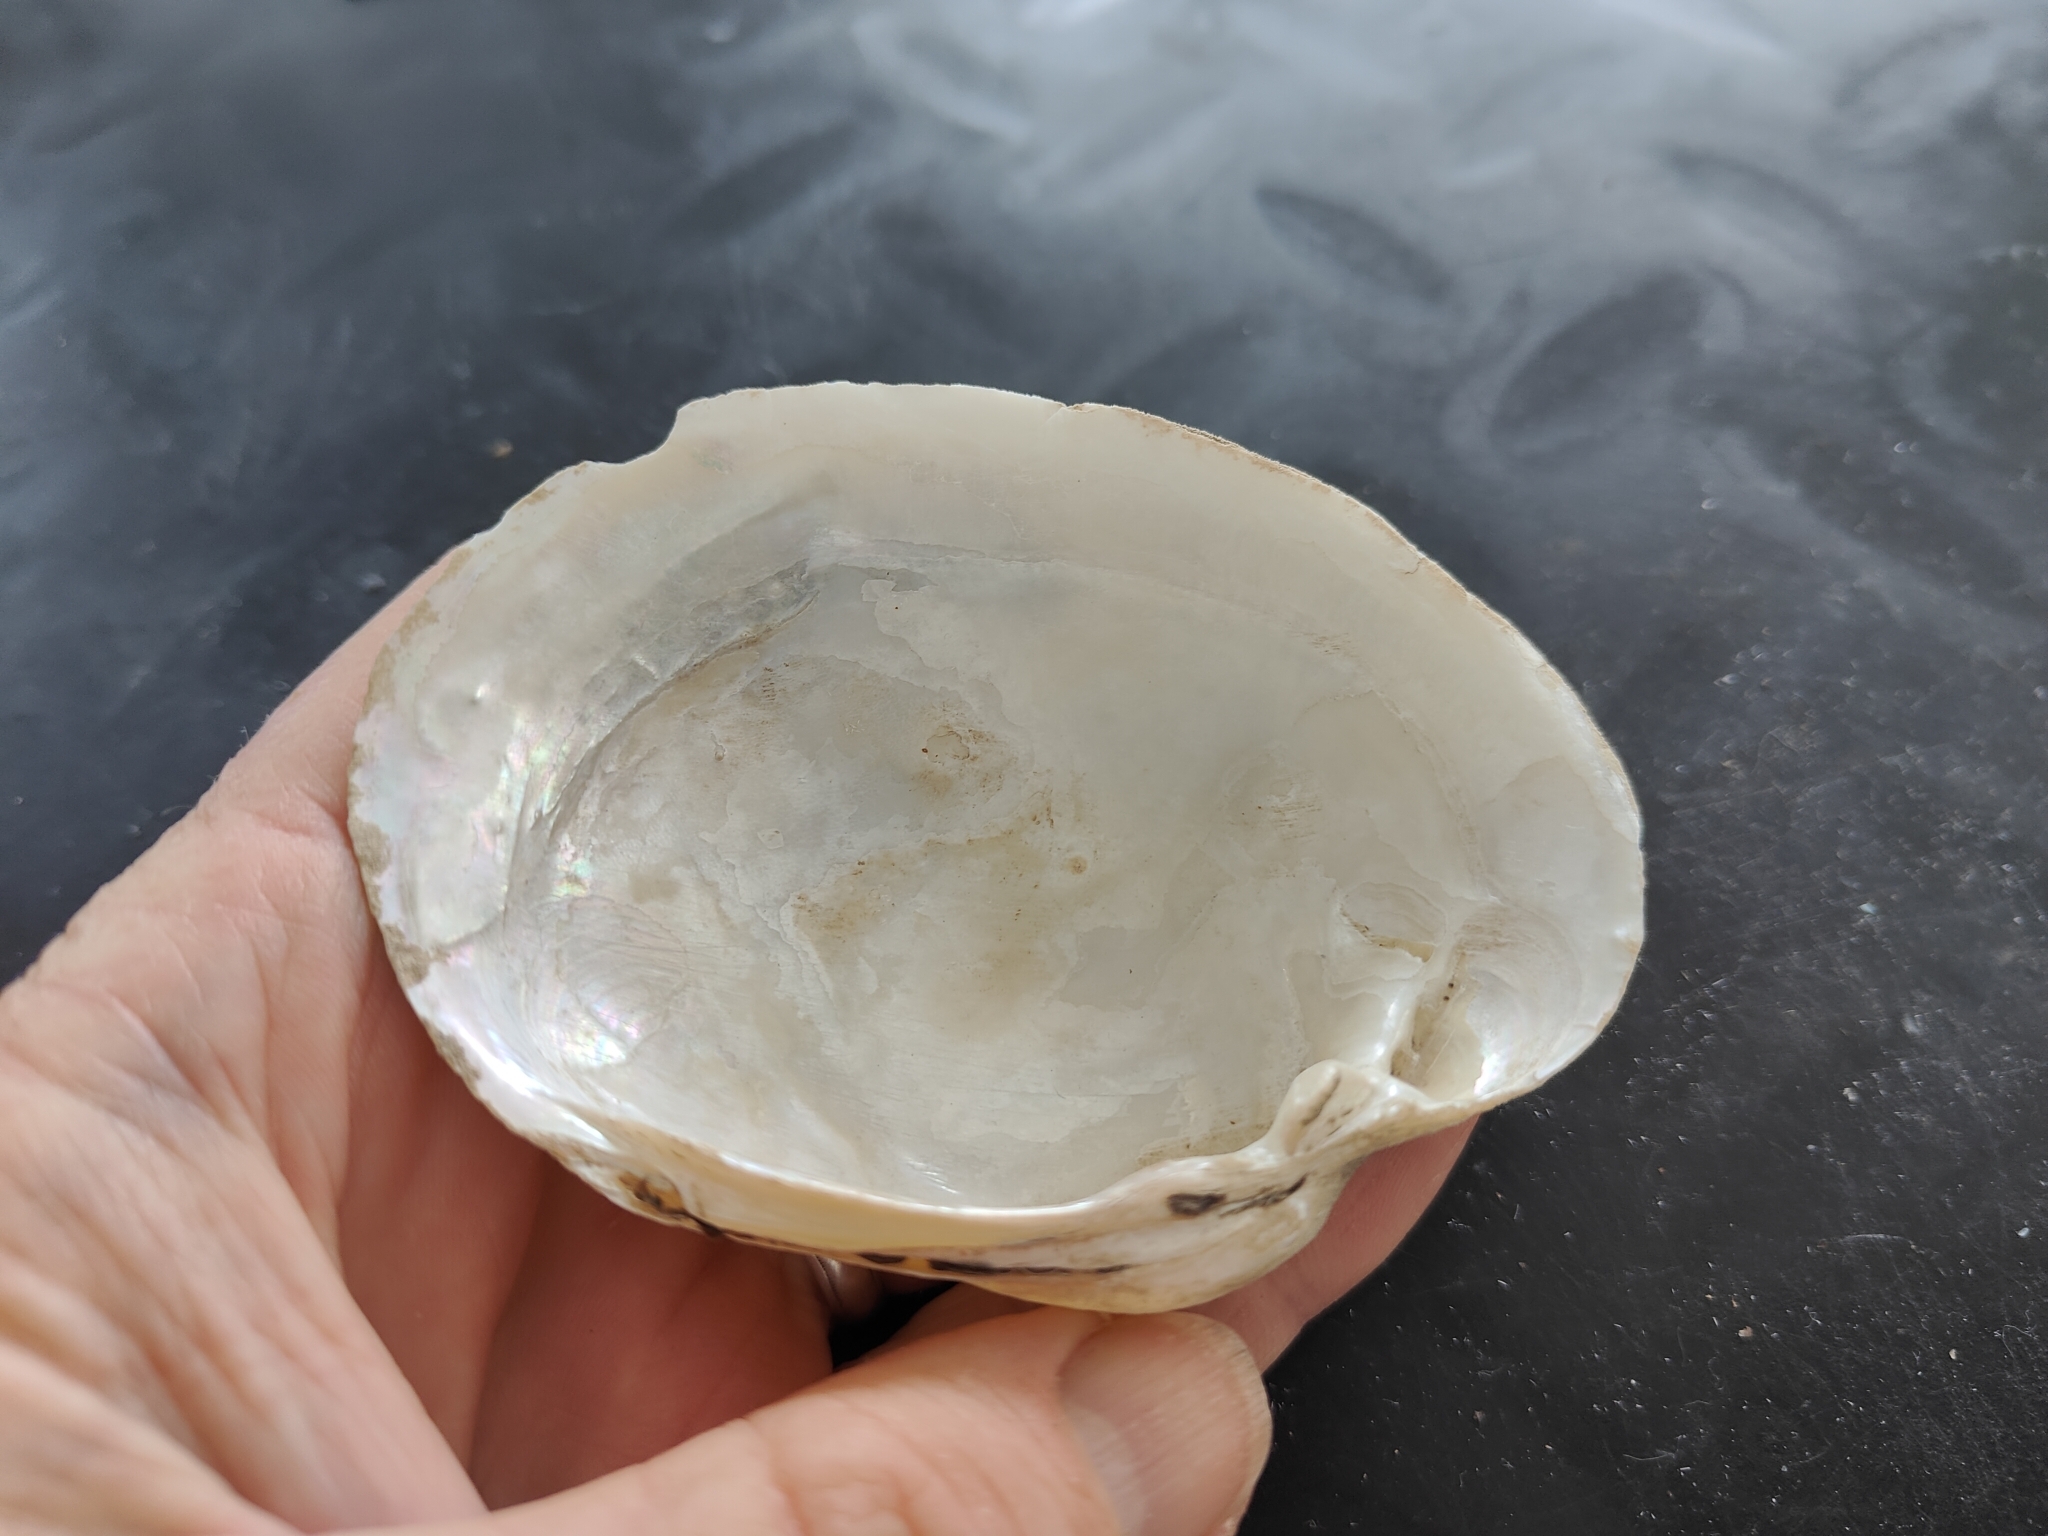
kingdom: Animalia
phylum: Mollusca
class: Bivalvia
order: Unionida
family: Unionidae
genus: Lampsilis
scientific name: Lampsilis cardium
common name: Plain pocketbook
